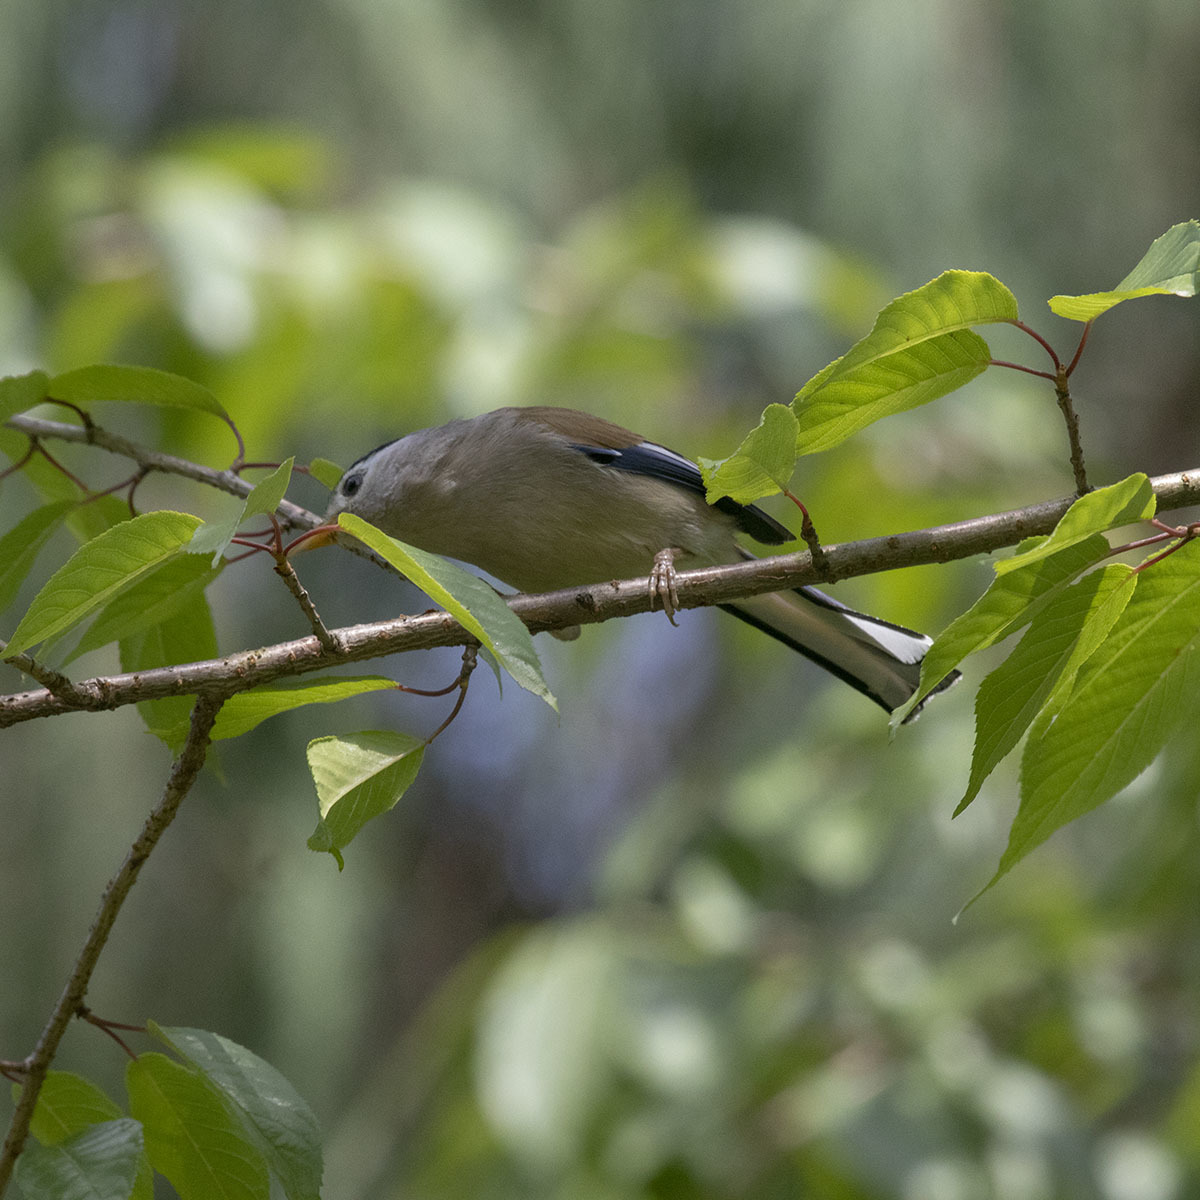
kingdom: Animalia
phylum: Chordata
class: Aves
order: Passeriformes
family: Leiothrichidae
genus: Minla
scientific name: Minla cyanouroptera
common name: Blue-winged minla
